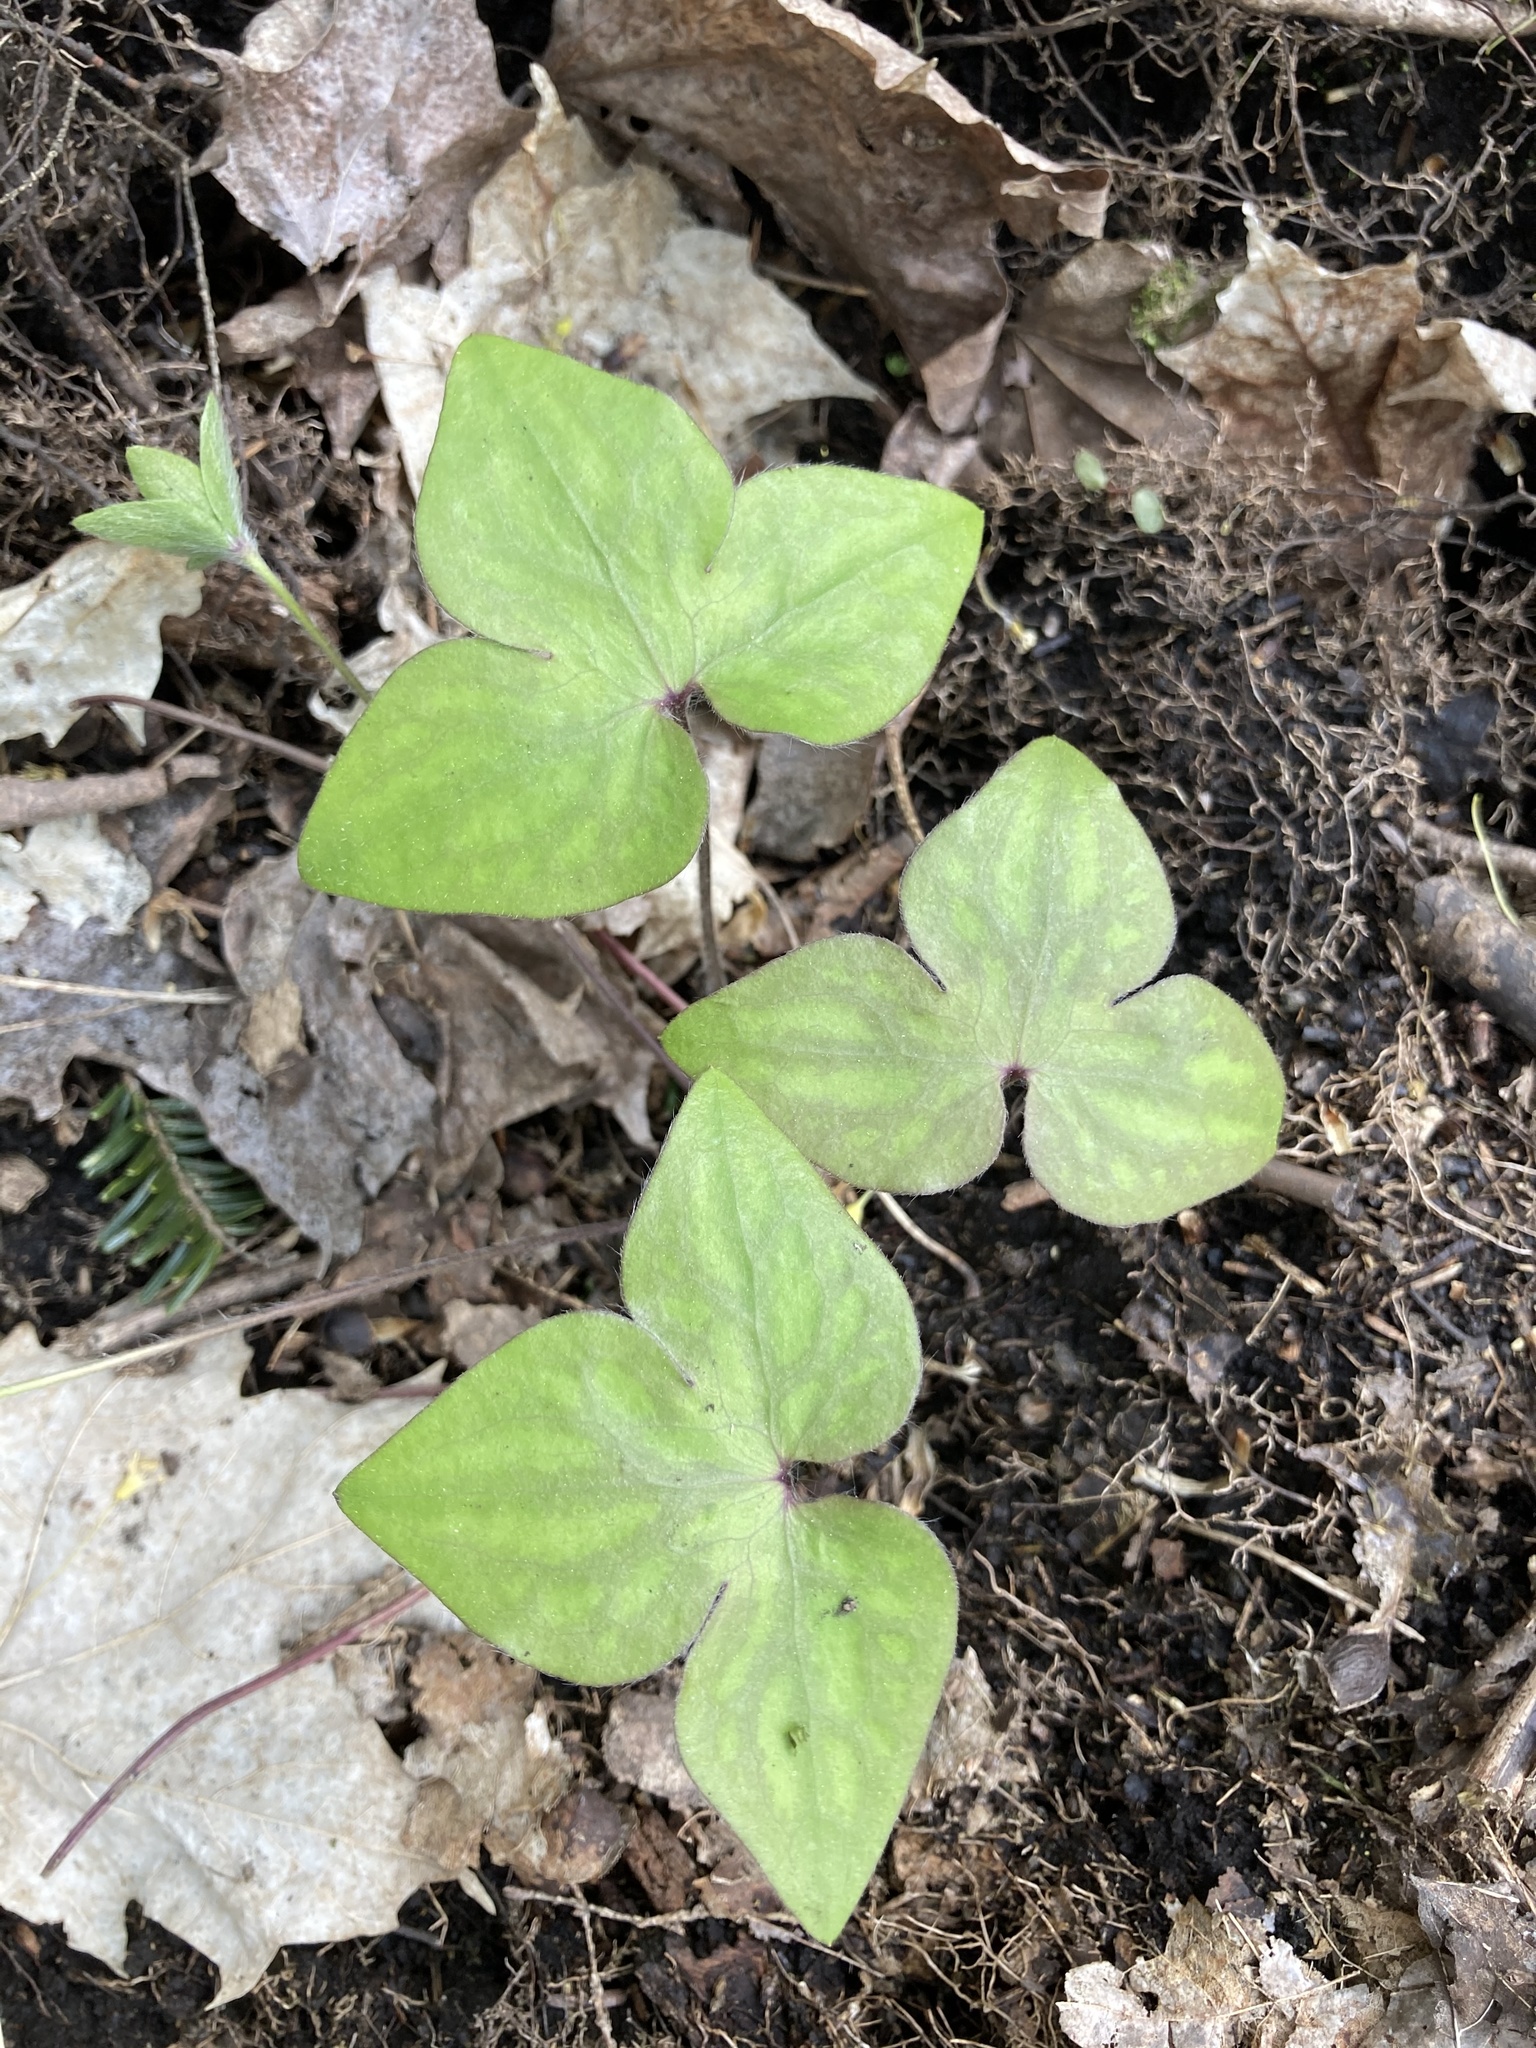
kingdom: Plantae
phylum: Tracheophyta
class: Magnoliopsida
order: Ranunculales
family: Ranunculaceae
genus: Hepatica
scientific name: Hepatica acutiloba
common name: Sharp-lobed hepatica
